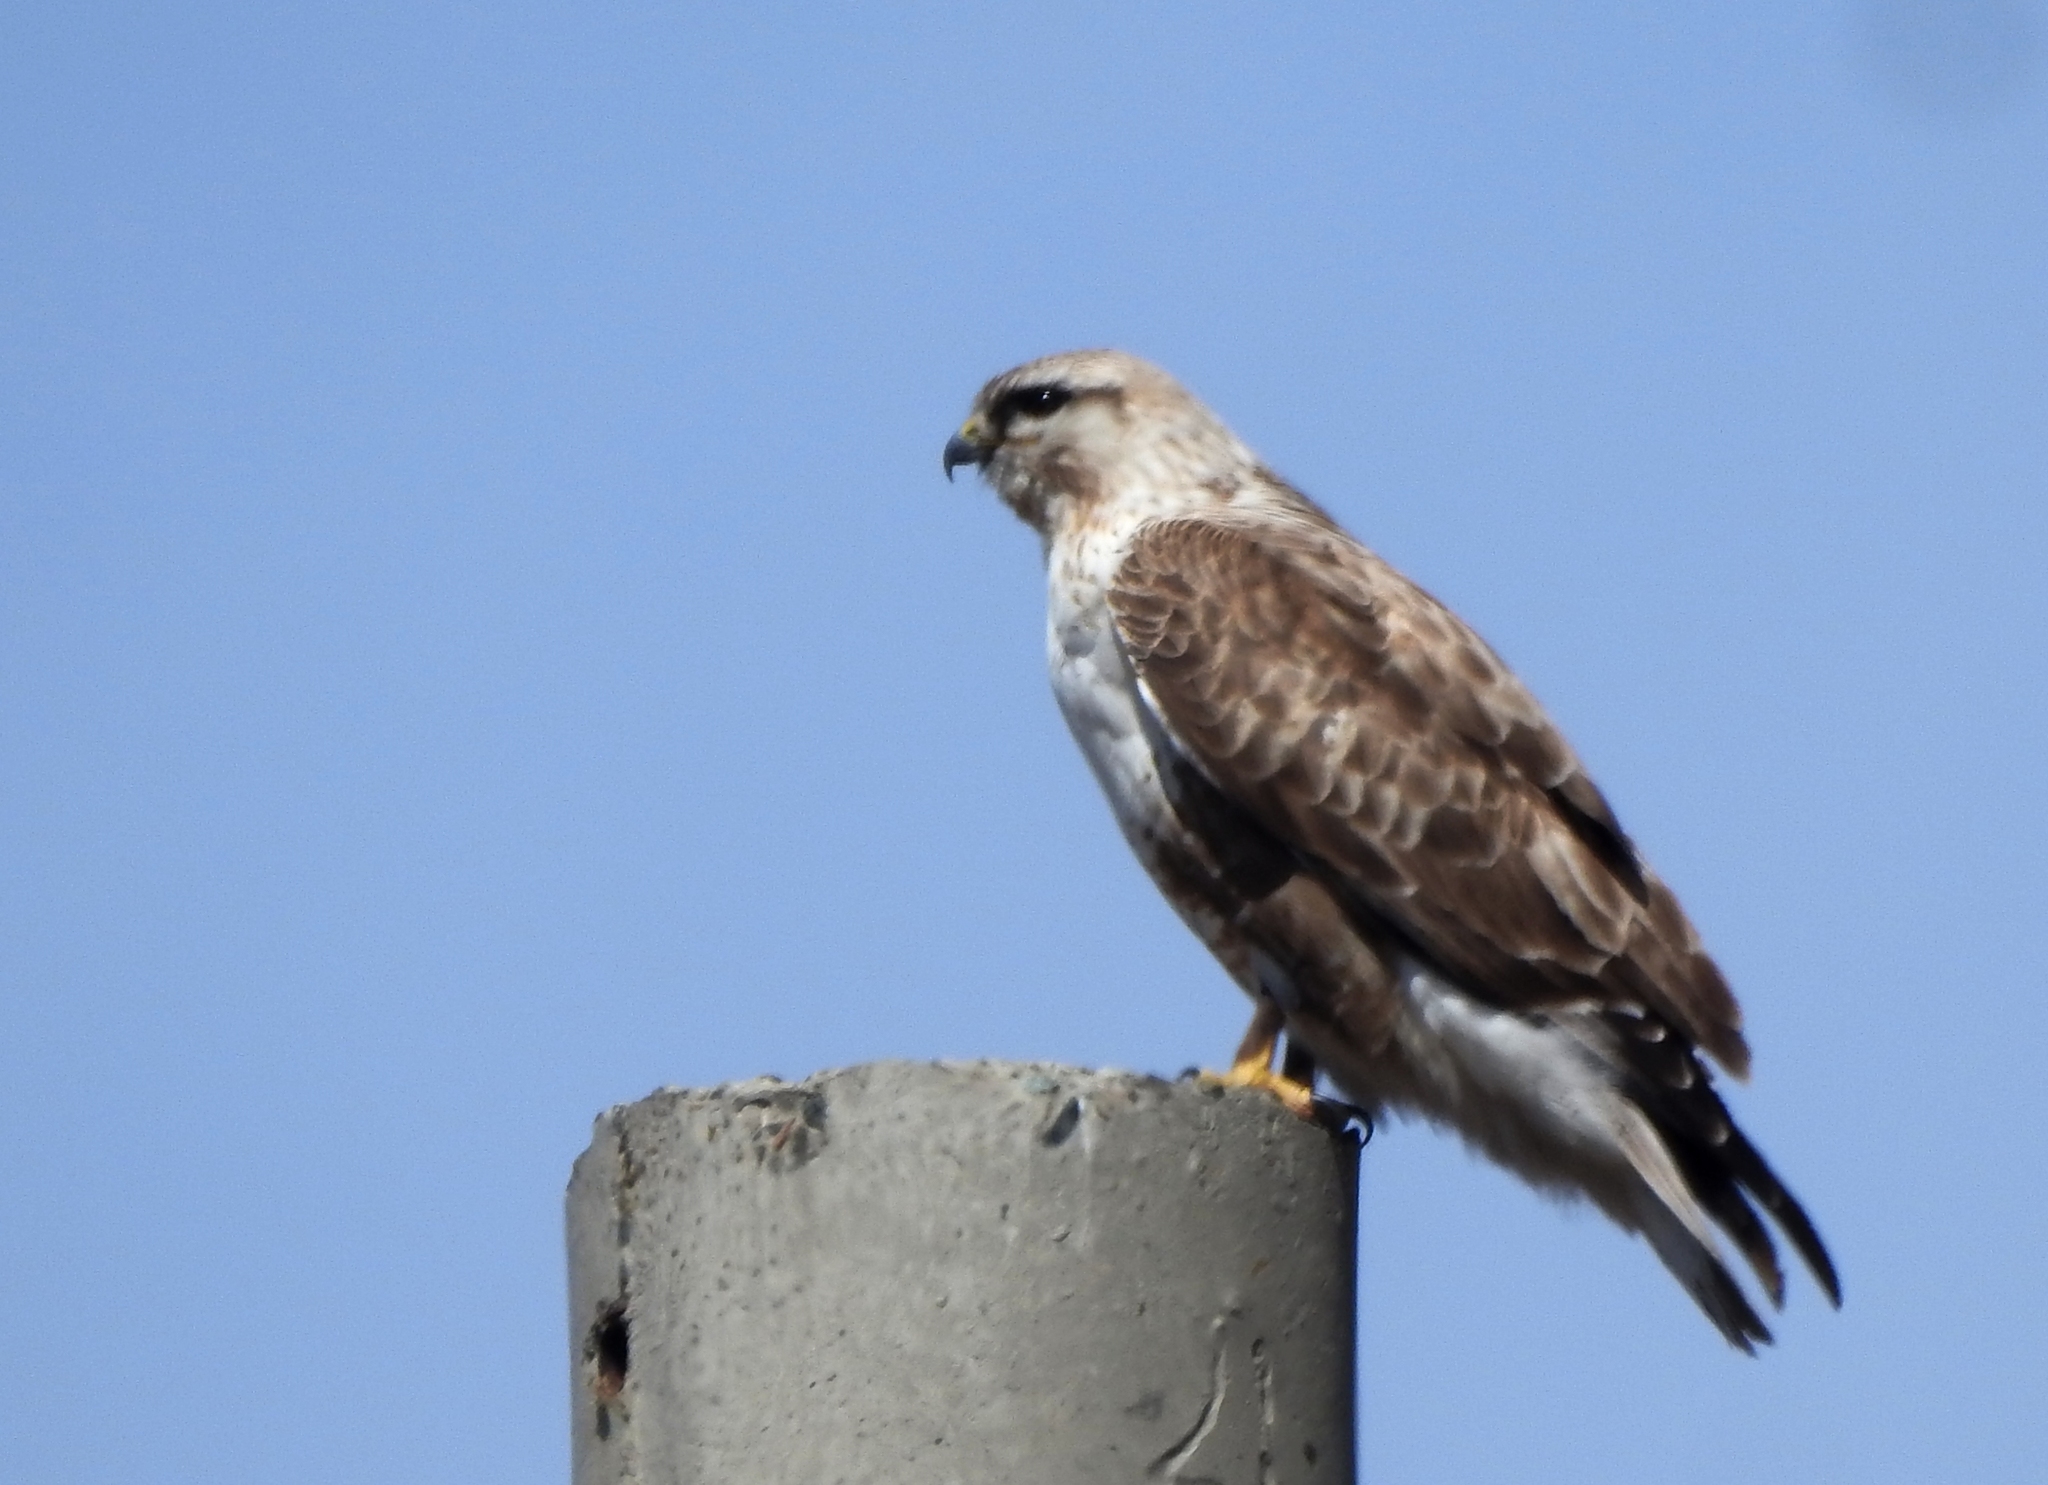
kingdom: Animalia
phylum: Chordata
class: Aves
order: Accipitriformes
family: Accipitridae
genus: Buteo
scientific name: Buteo hemilasius
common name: Upland buzzard
